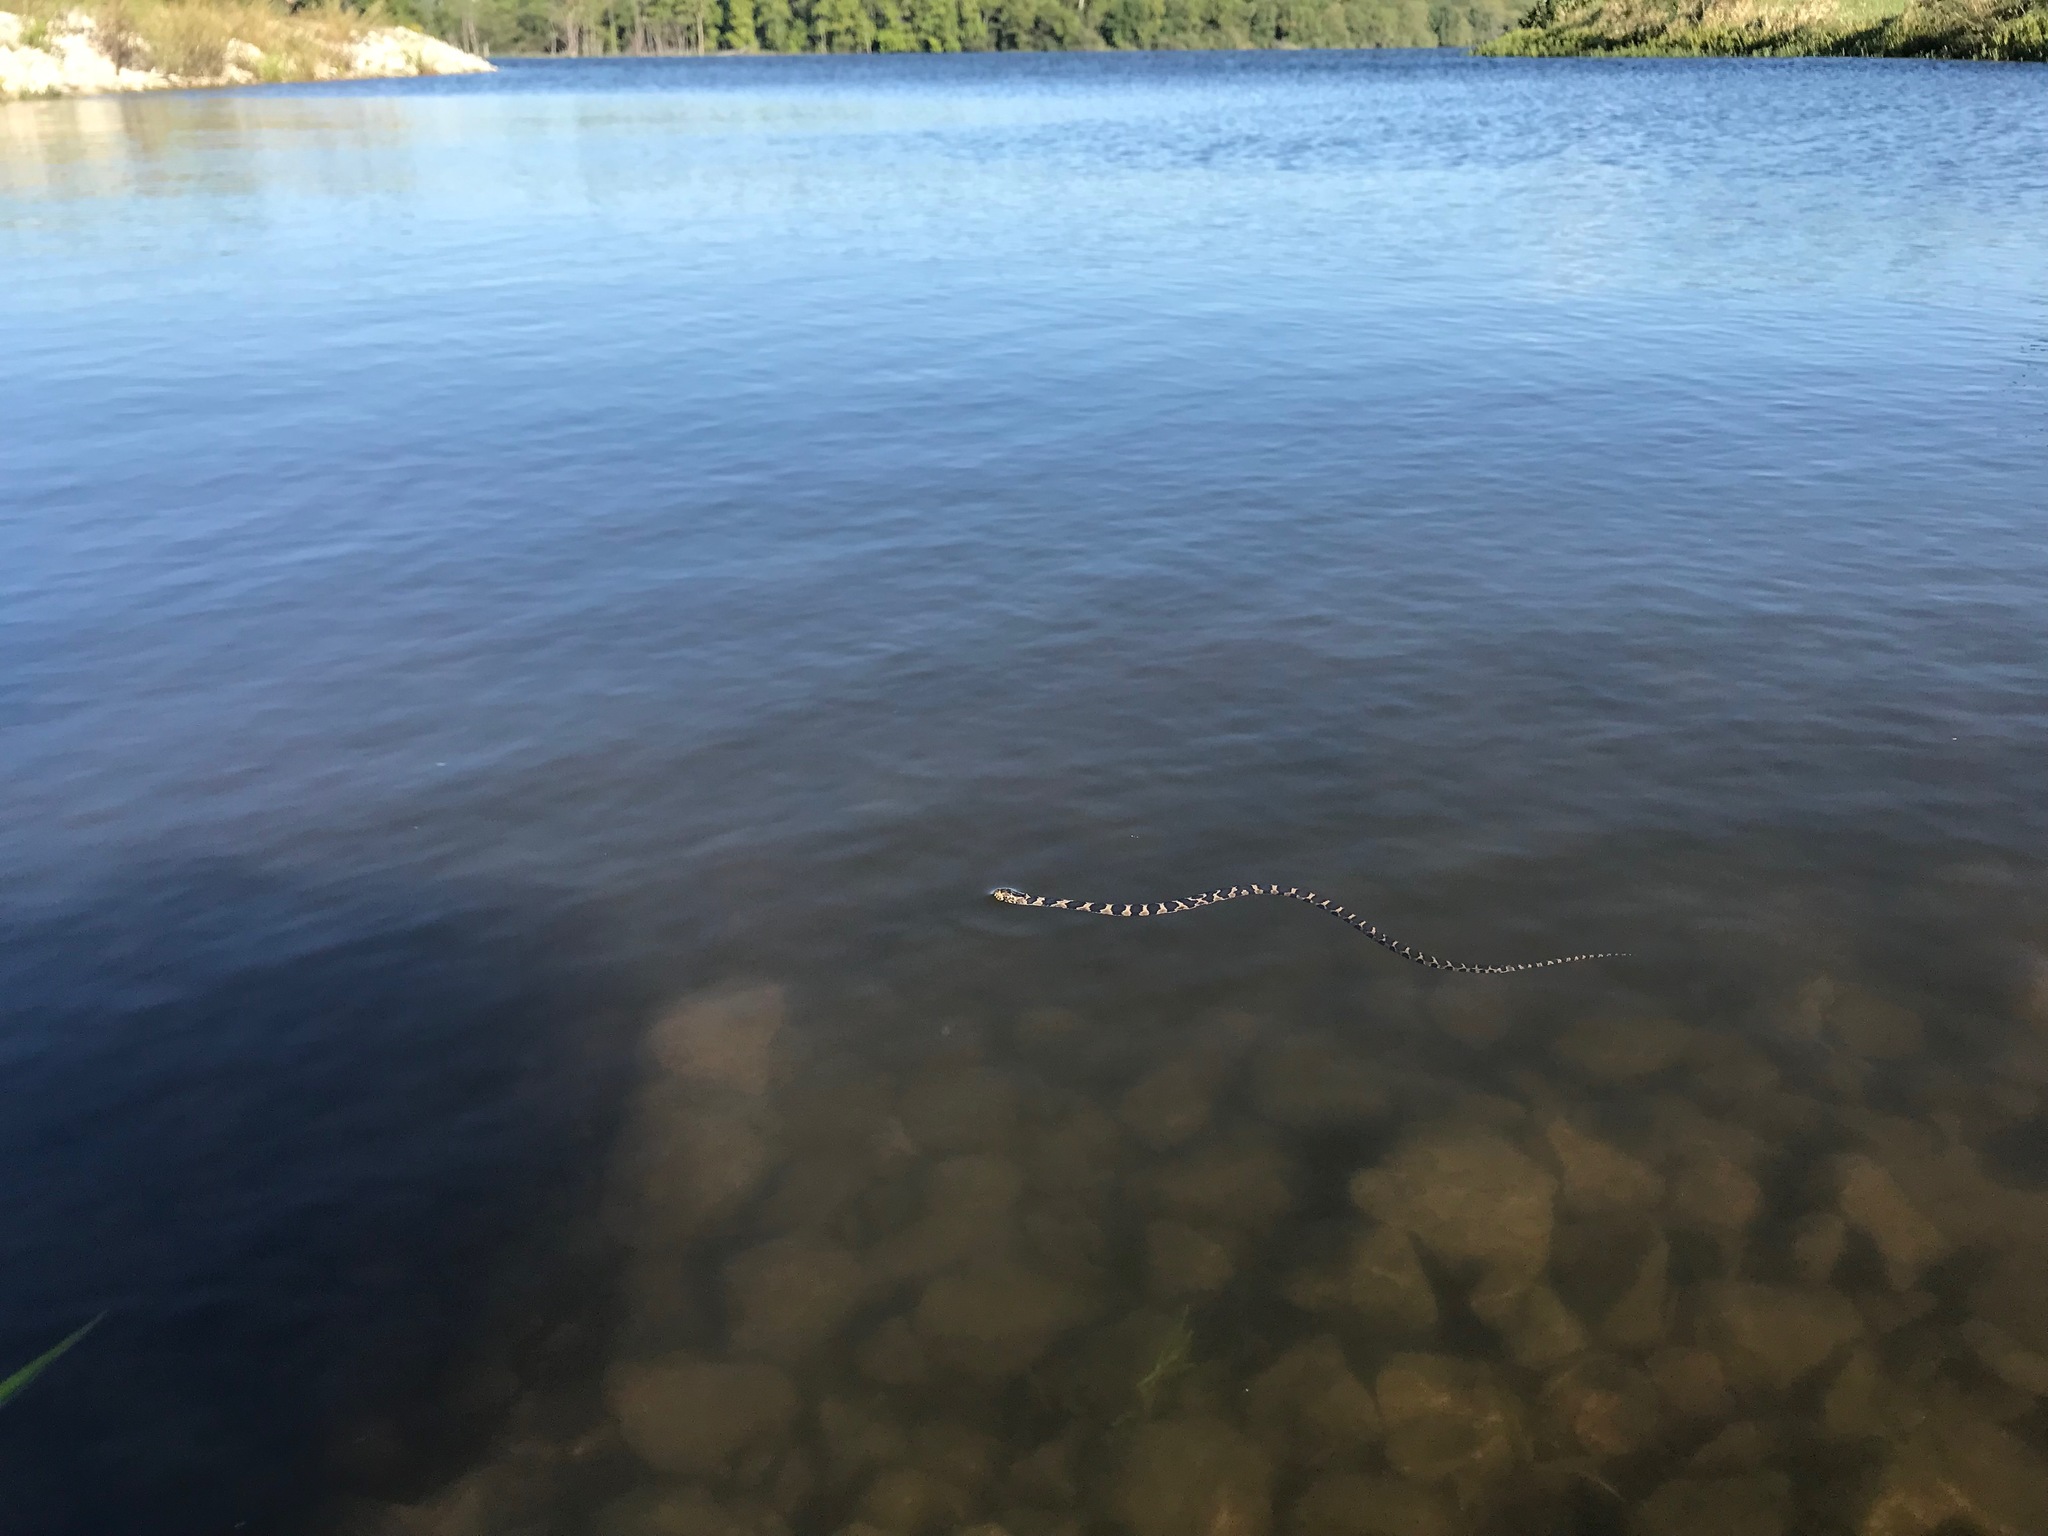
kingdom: Animalia
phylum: Chordata
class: Squamata
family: Colubridae
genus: Nerodia
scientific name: Nerodia sipedon
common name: Northern water snake
